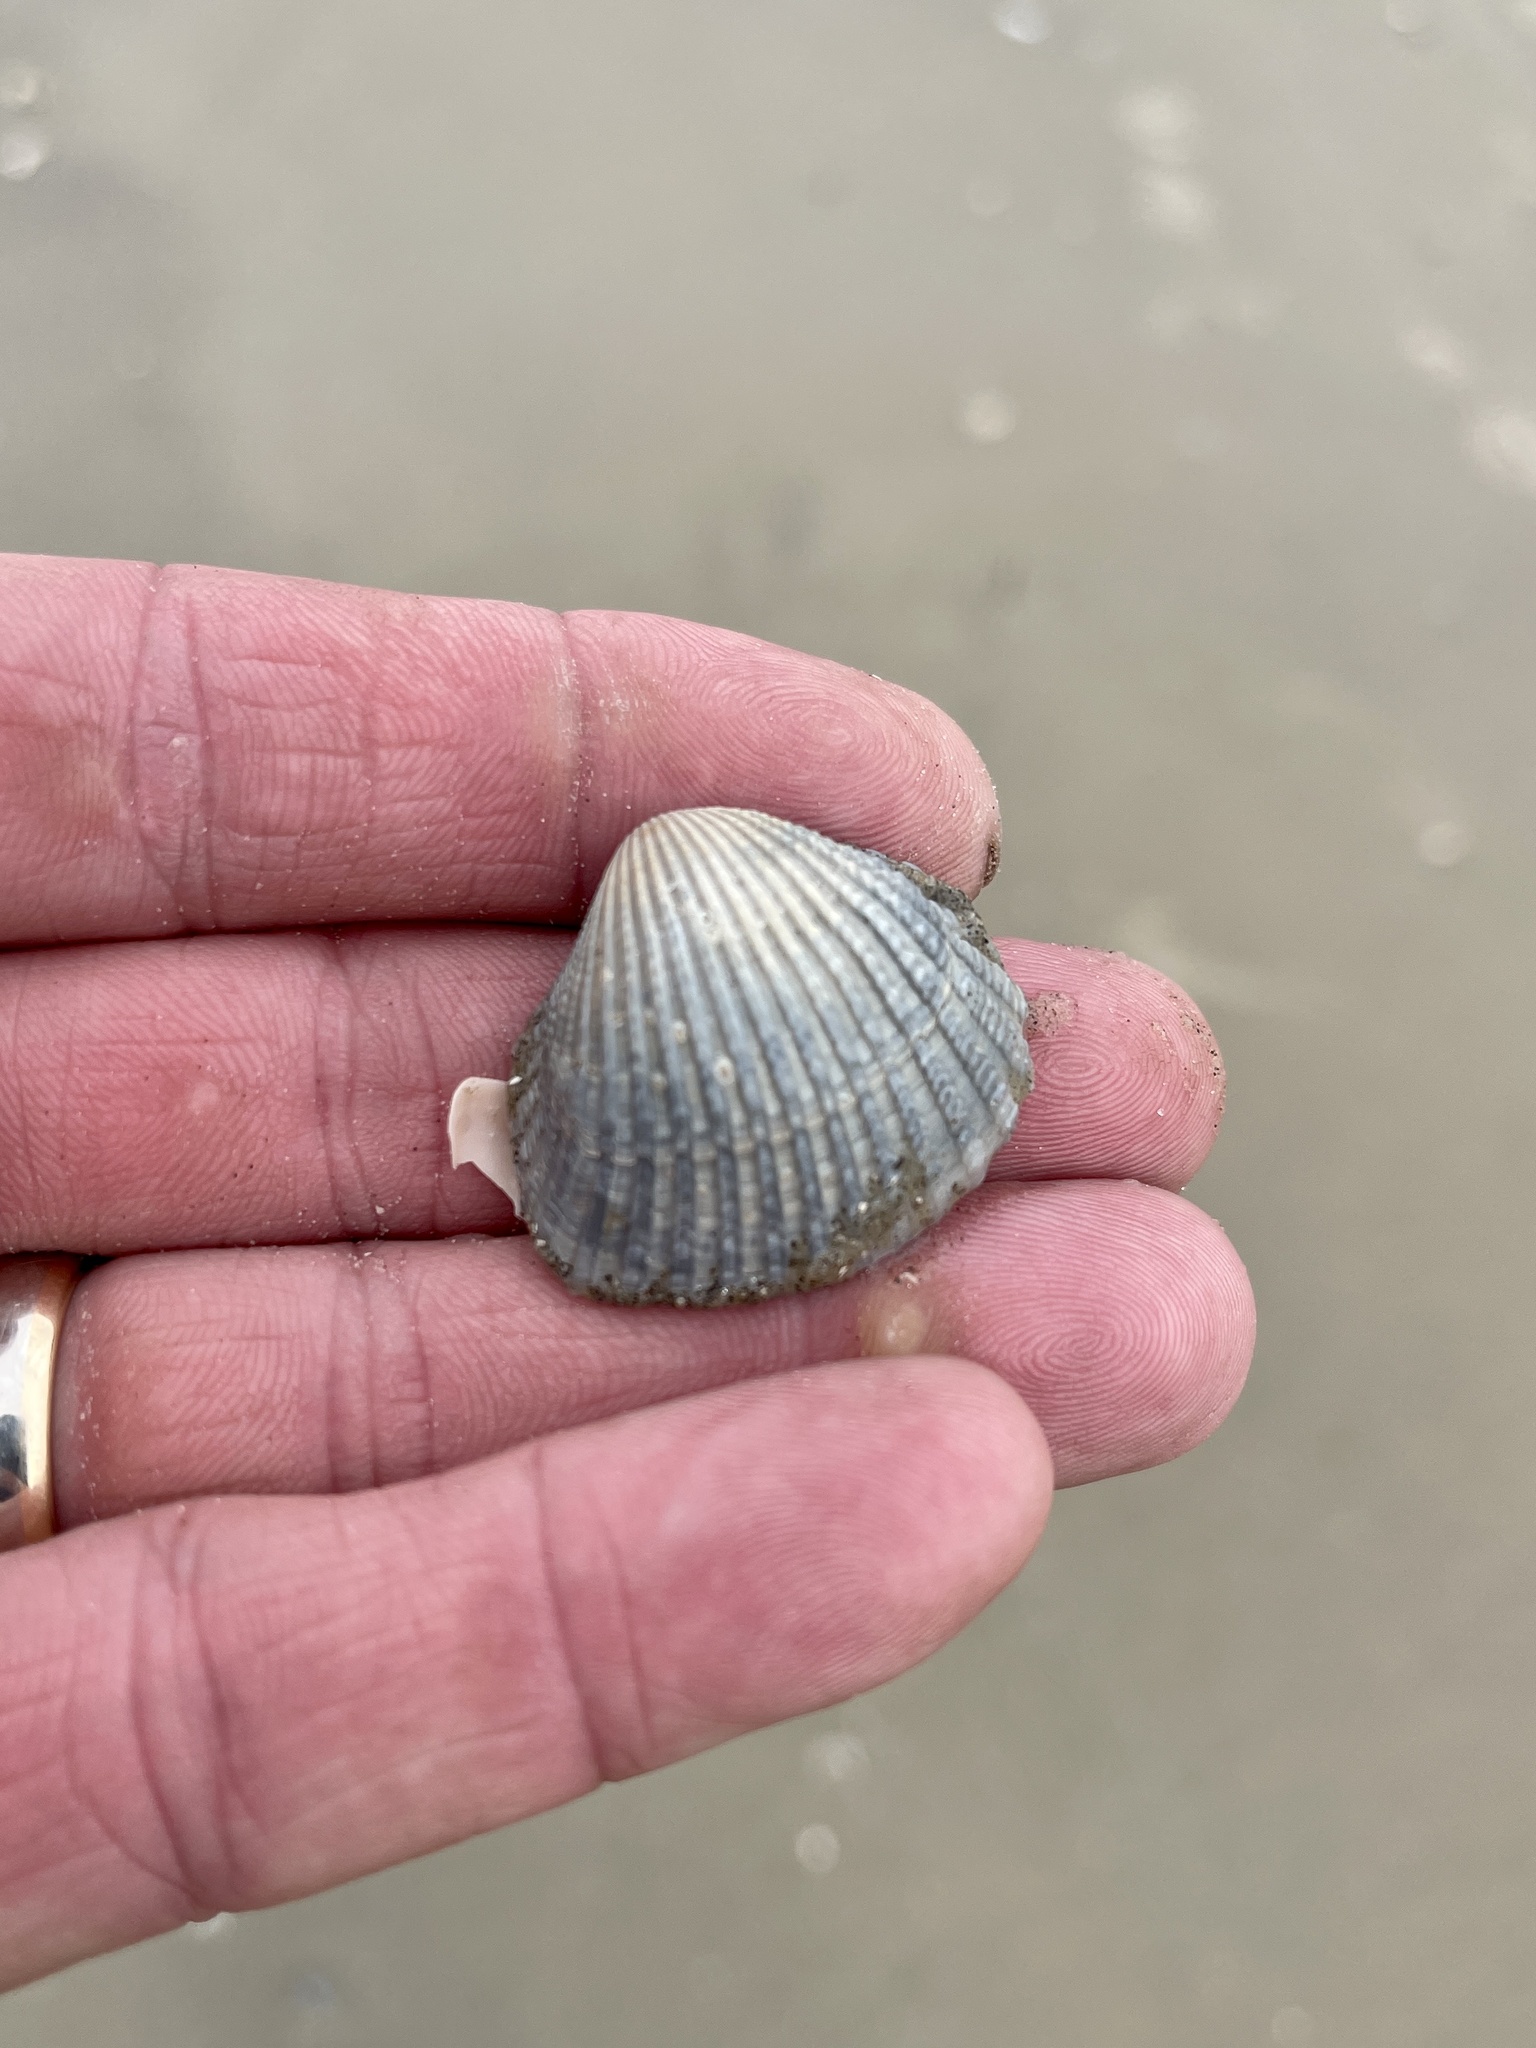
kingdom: Animalia
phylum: Mollusca
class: Bivalvia
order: Arcida
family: Arcidae
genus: Anadara
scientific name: Anadara brasiliana
